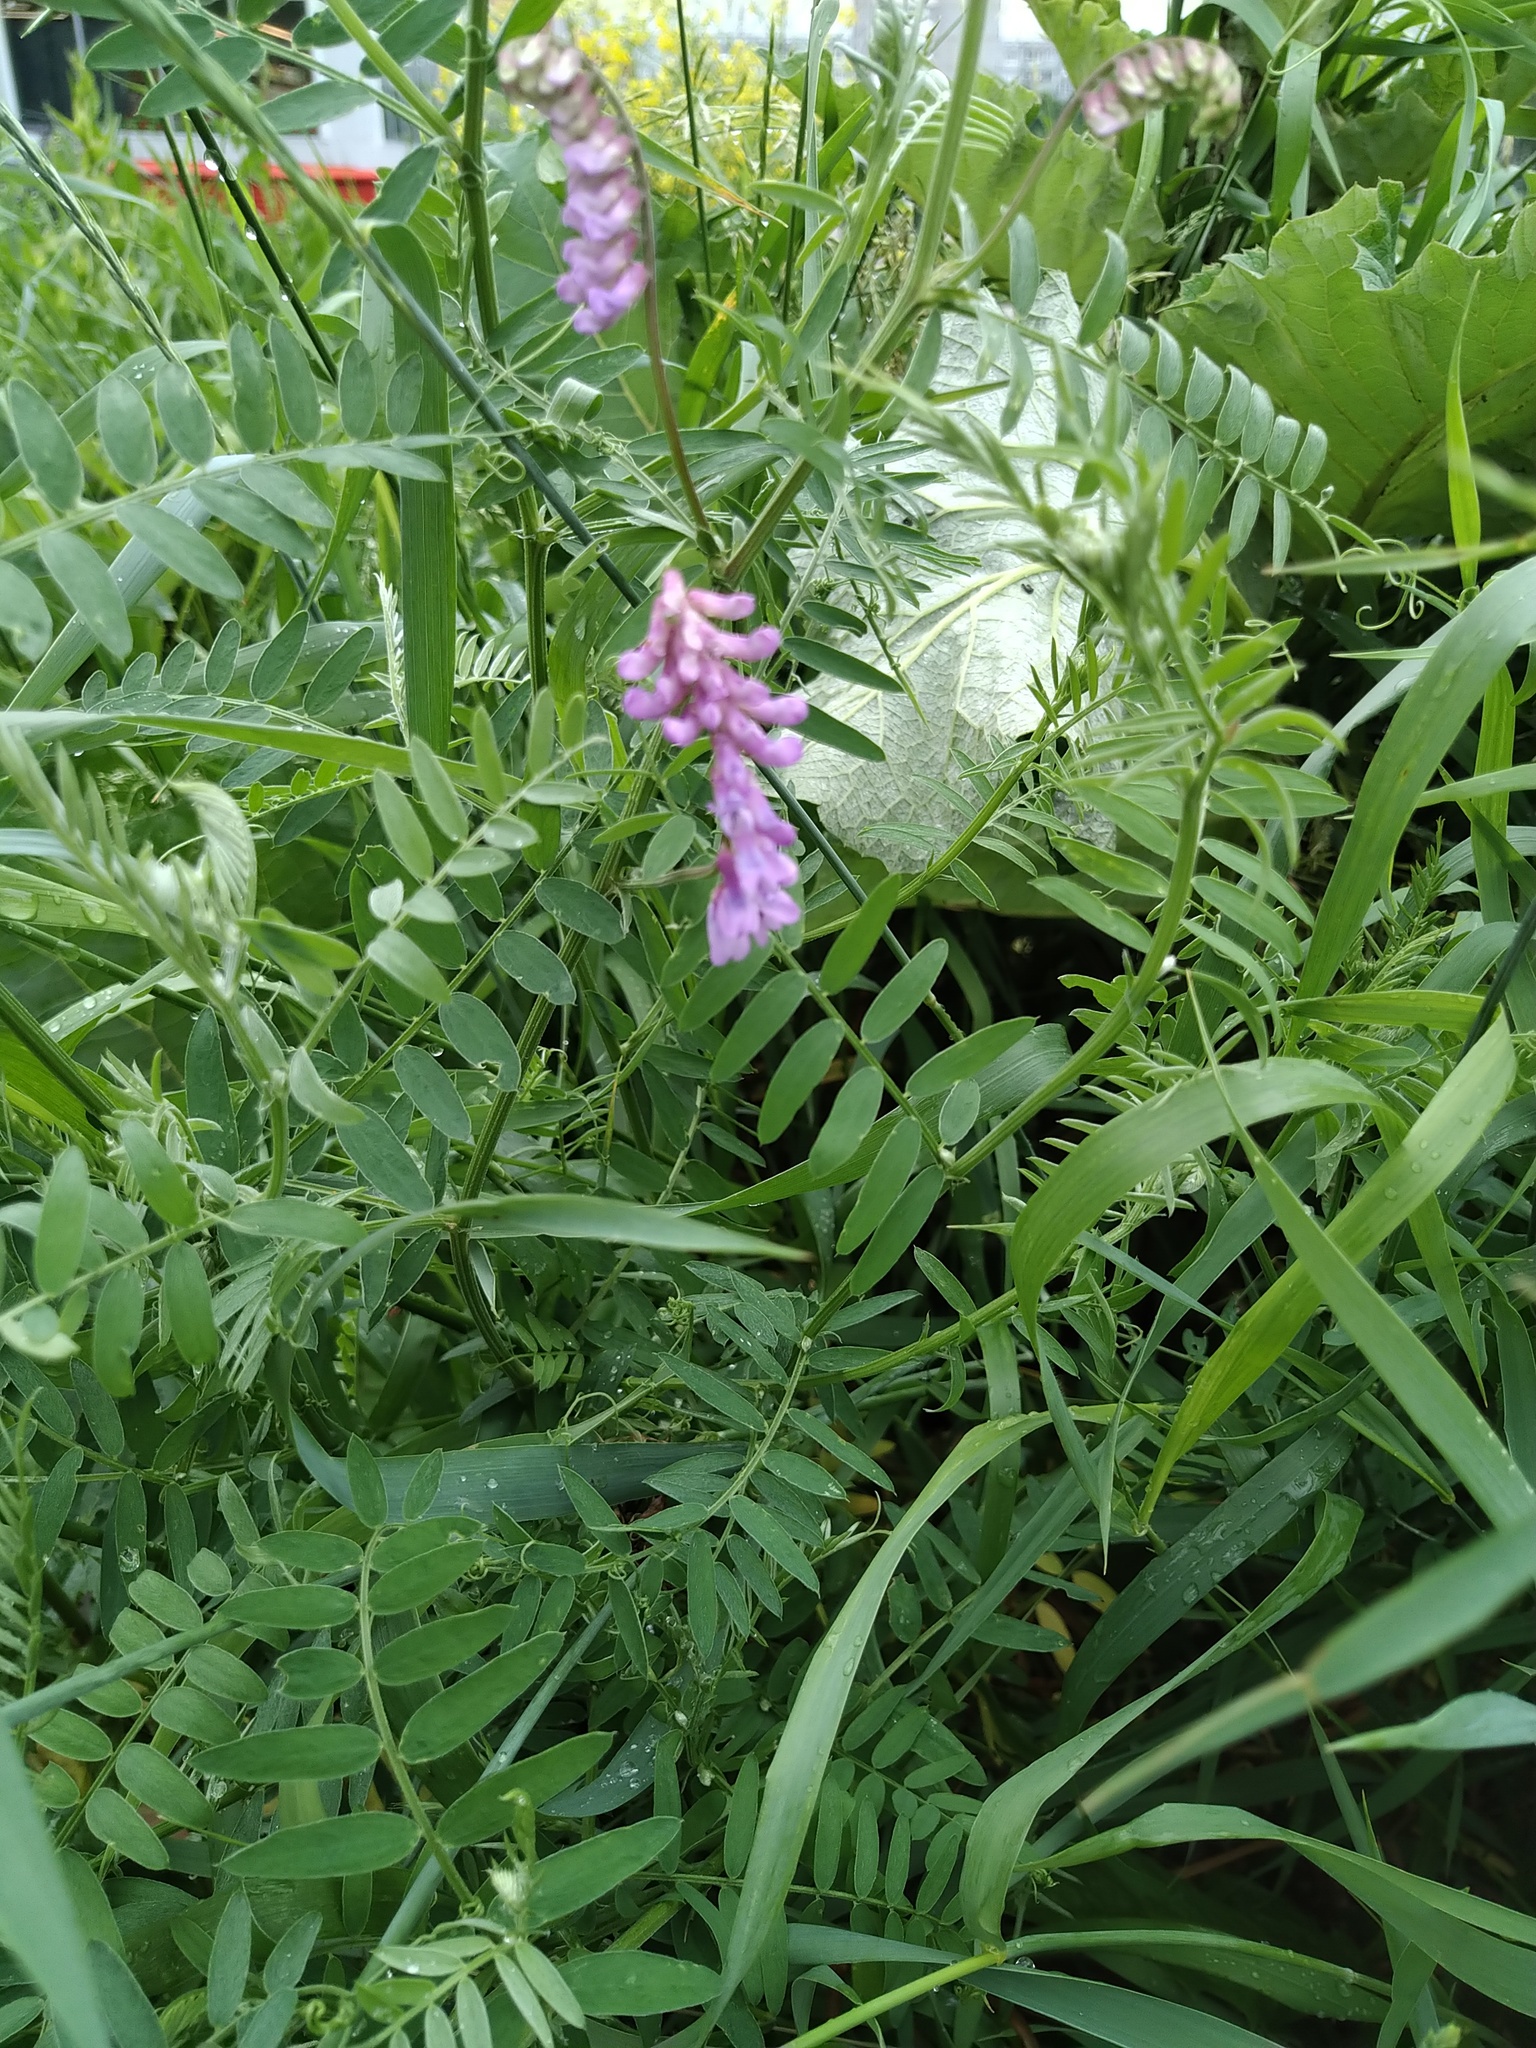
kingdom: Plantae
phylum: Tracheophyta
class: Magnoliopsida
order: Fabales
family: Fabaceae
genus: Vicia
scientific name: Vicia cracca
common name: Bird vetch
